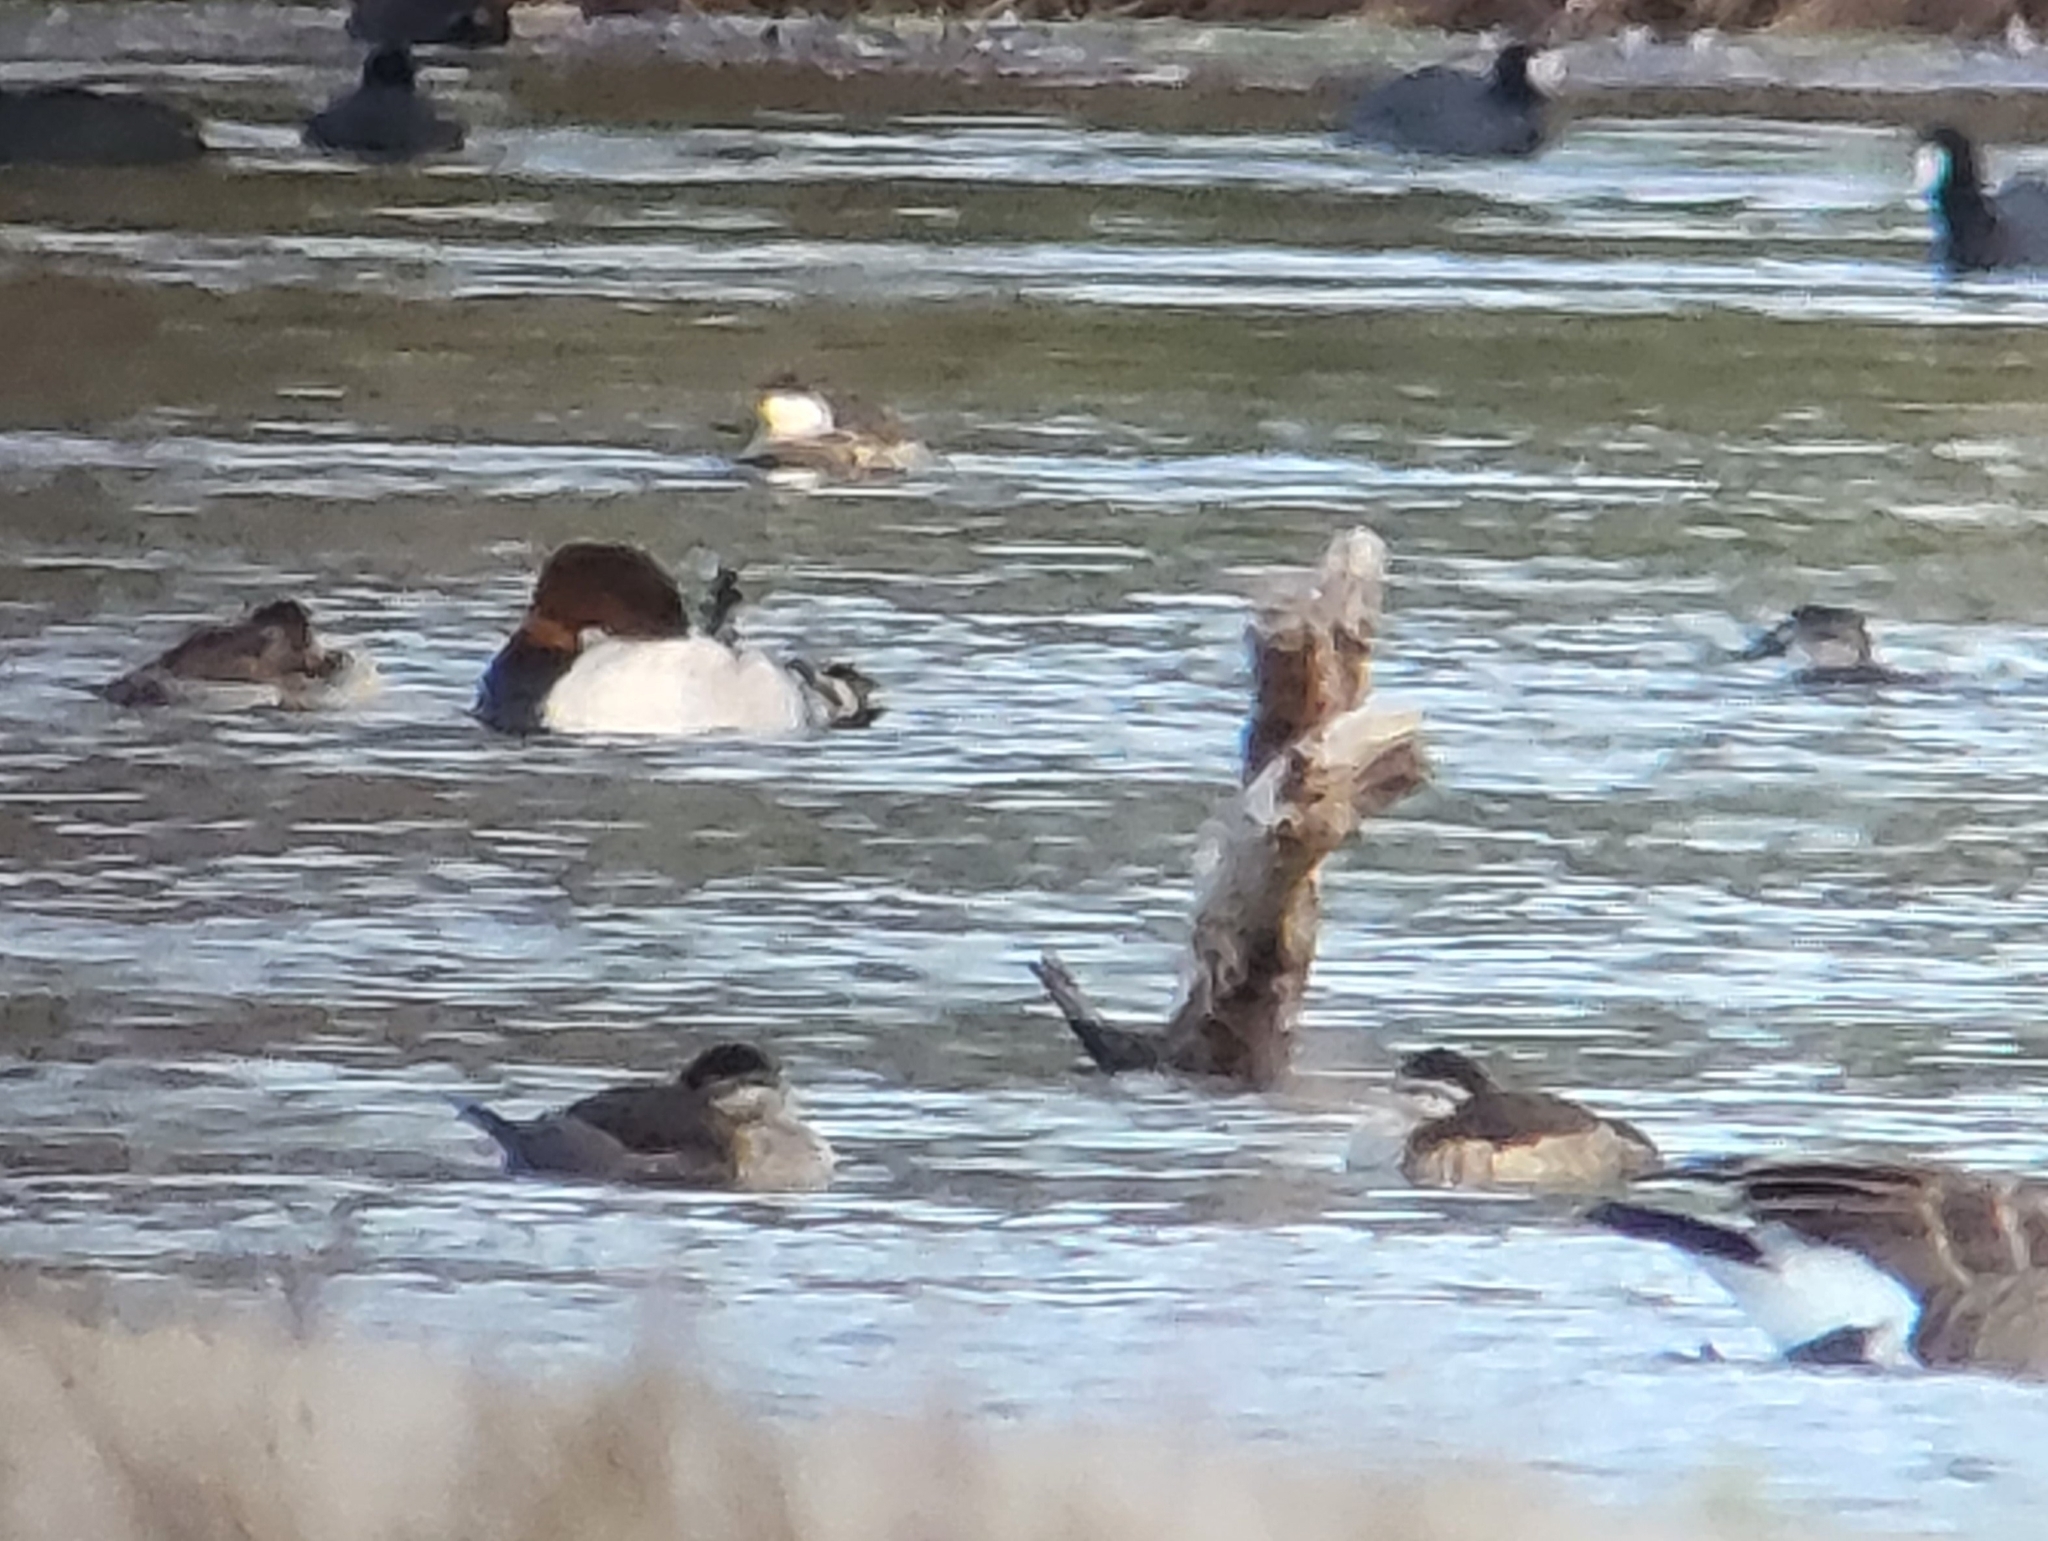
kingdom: Animalia
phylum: Chordata
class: Aves
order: Anseriformes
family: Anatidae
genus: Oxyura
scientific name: Oxyura jamaicensis
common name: Ruddy duck
